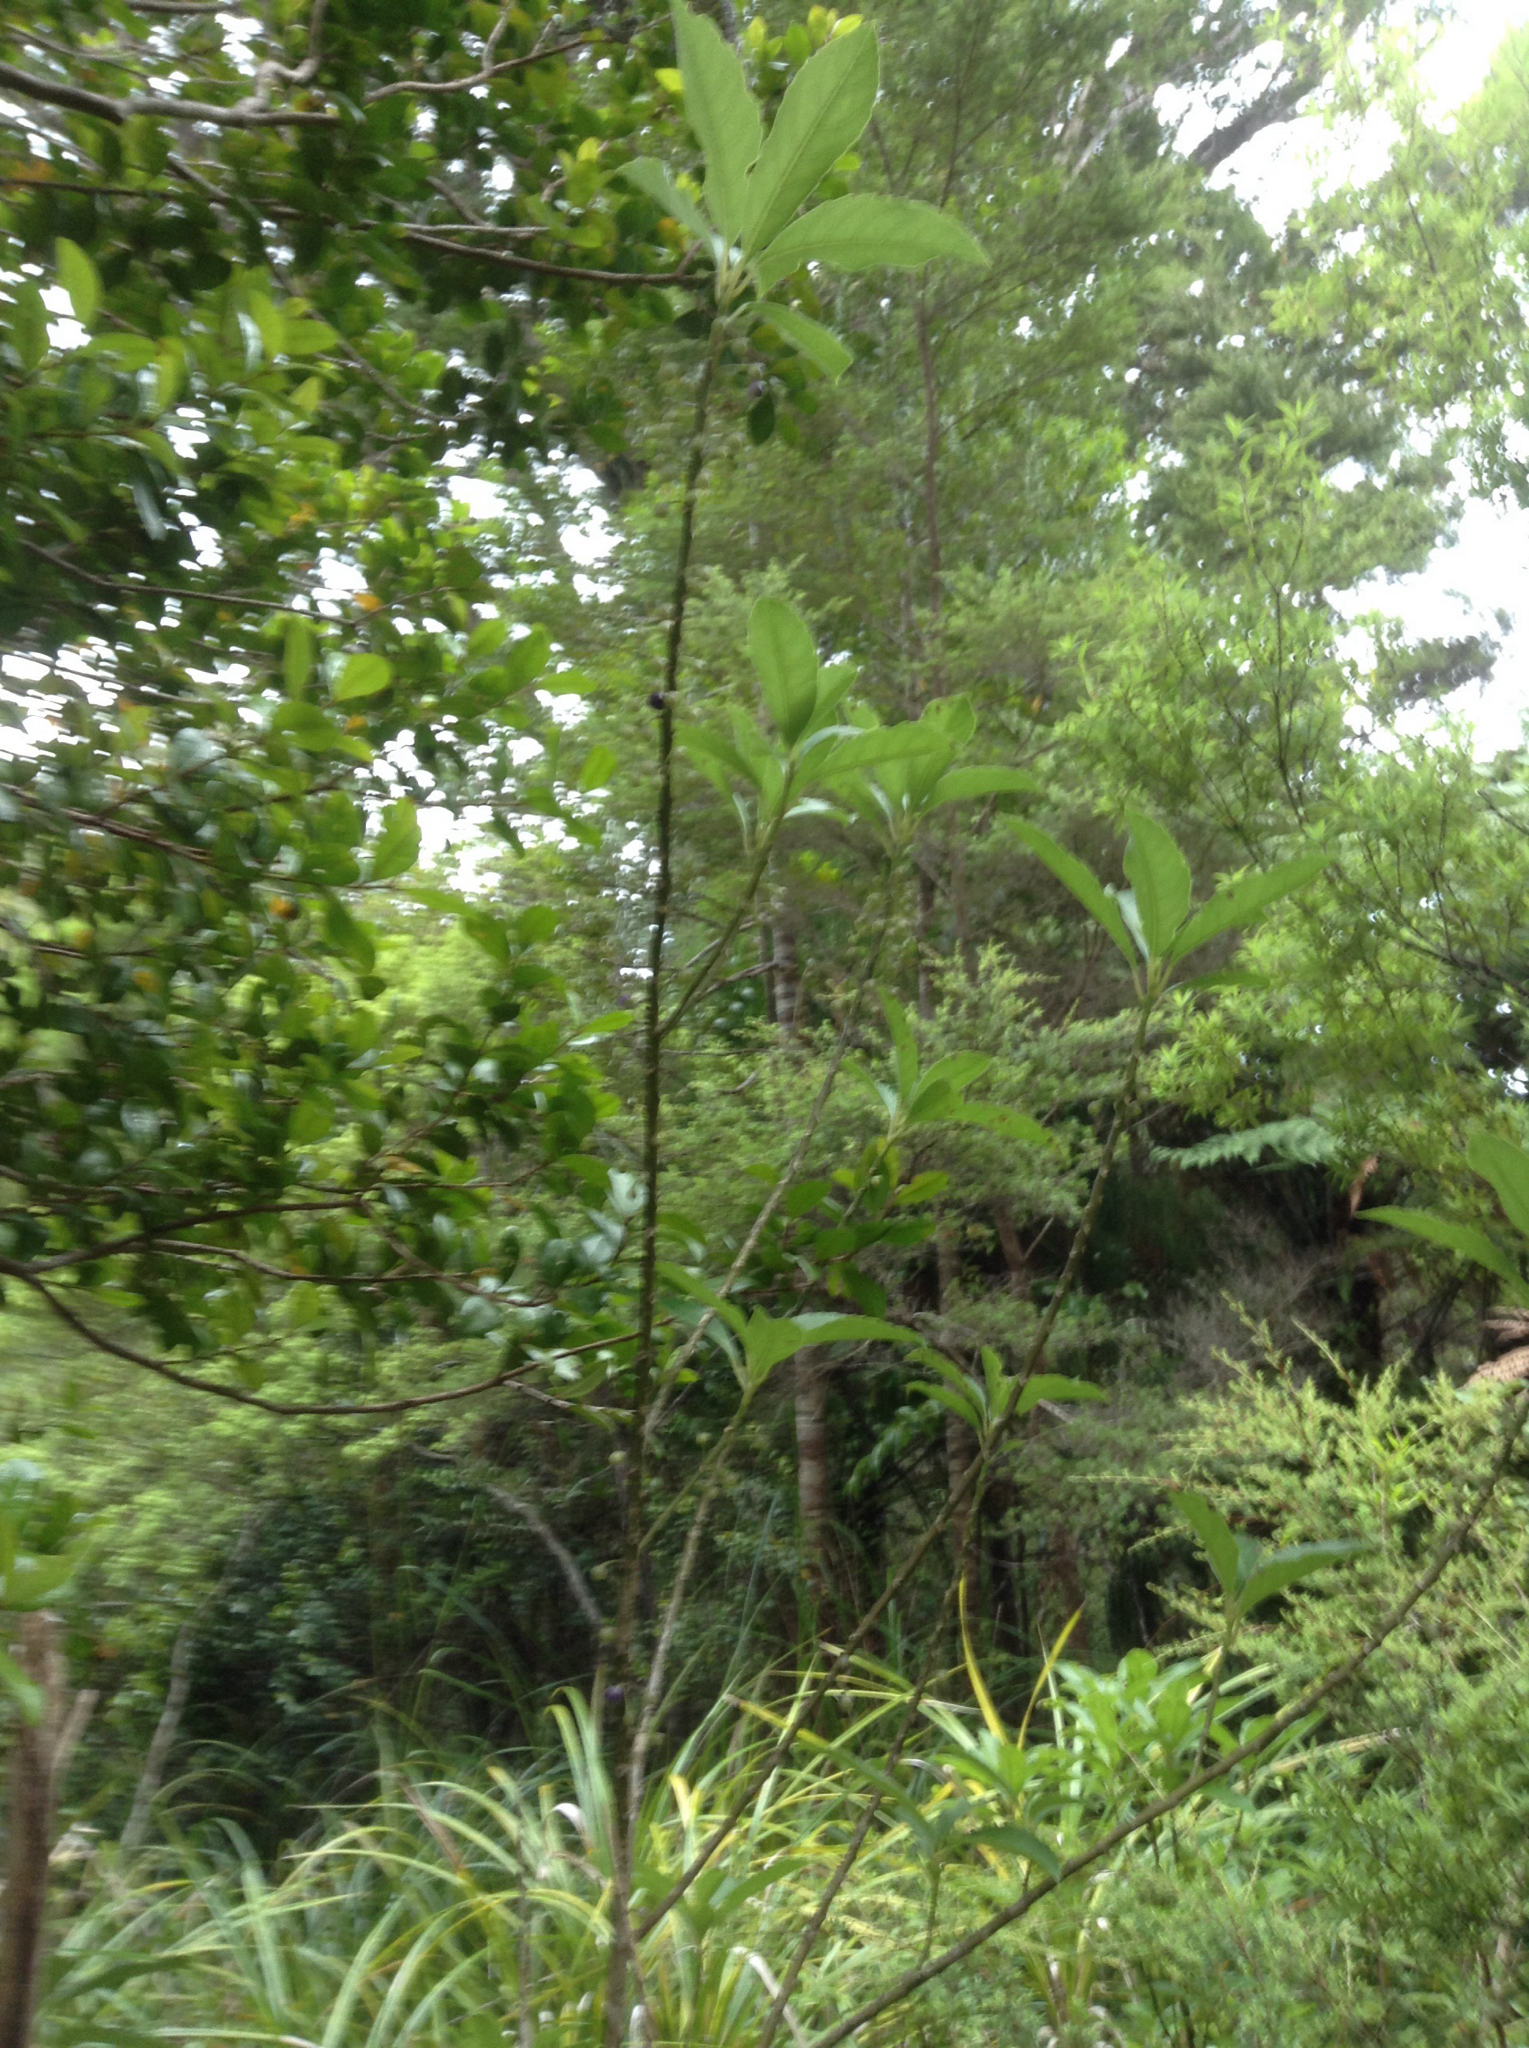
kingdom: Plantae
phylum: Tracheophyta
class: Magnoliopsida
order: Malpighiales
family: Violaceae
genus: Melicytus
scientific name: Melicytus macrophyllus
